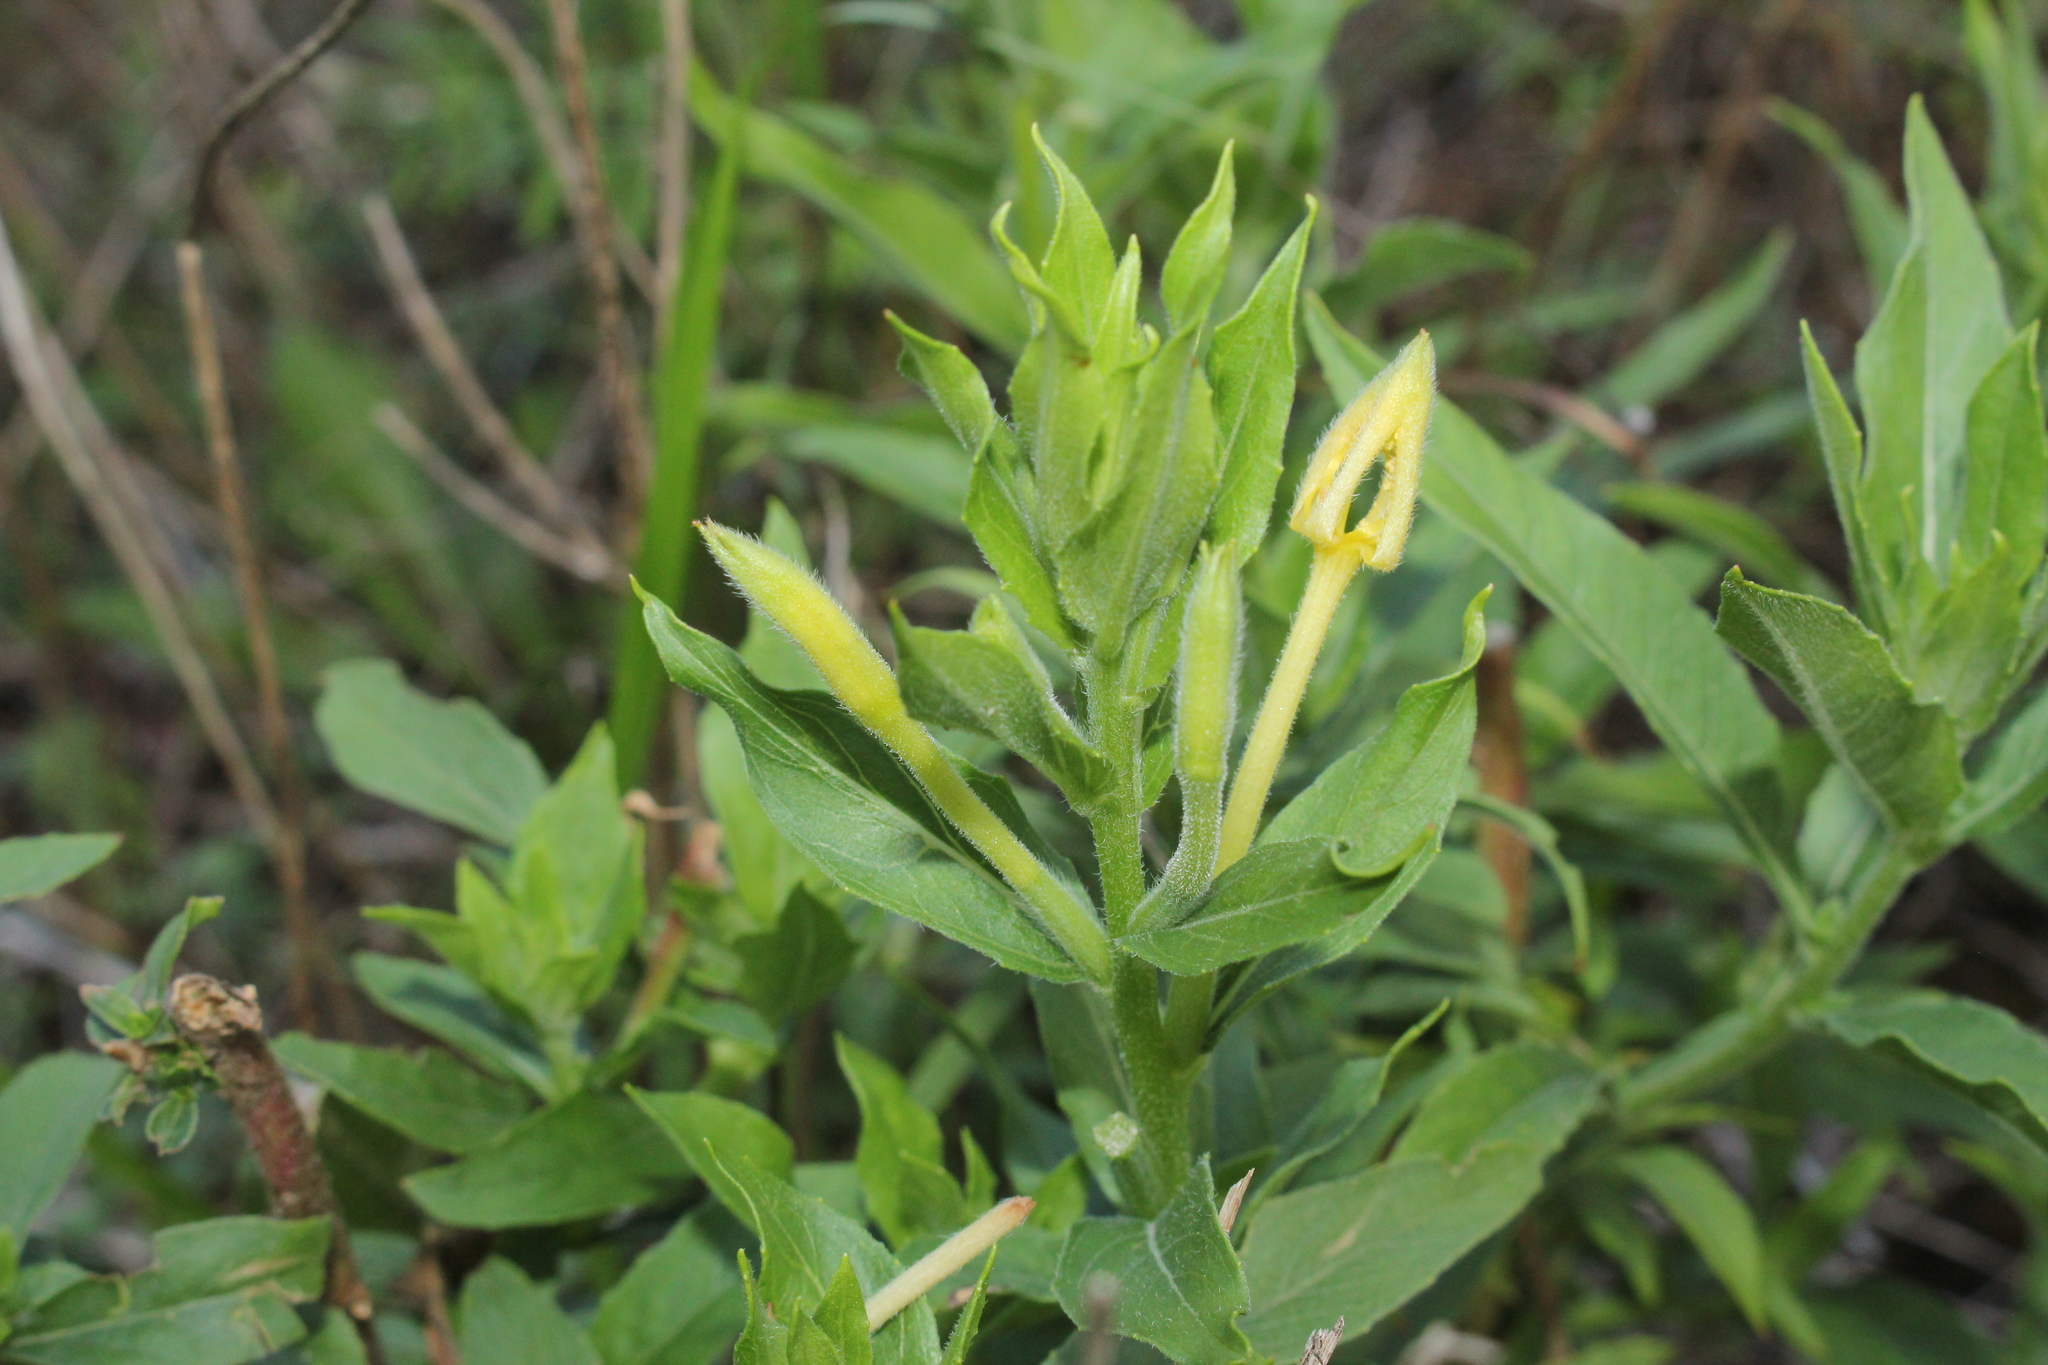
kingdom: Plantae
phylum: Tracheophyta
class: Magnoliopsida
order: Myrtales
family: Onagraceae
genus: Oenothera
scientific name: Oenothera parviflora
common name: Least evening-primrose
